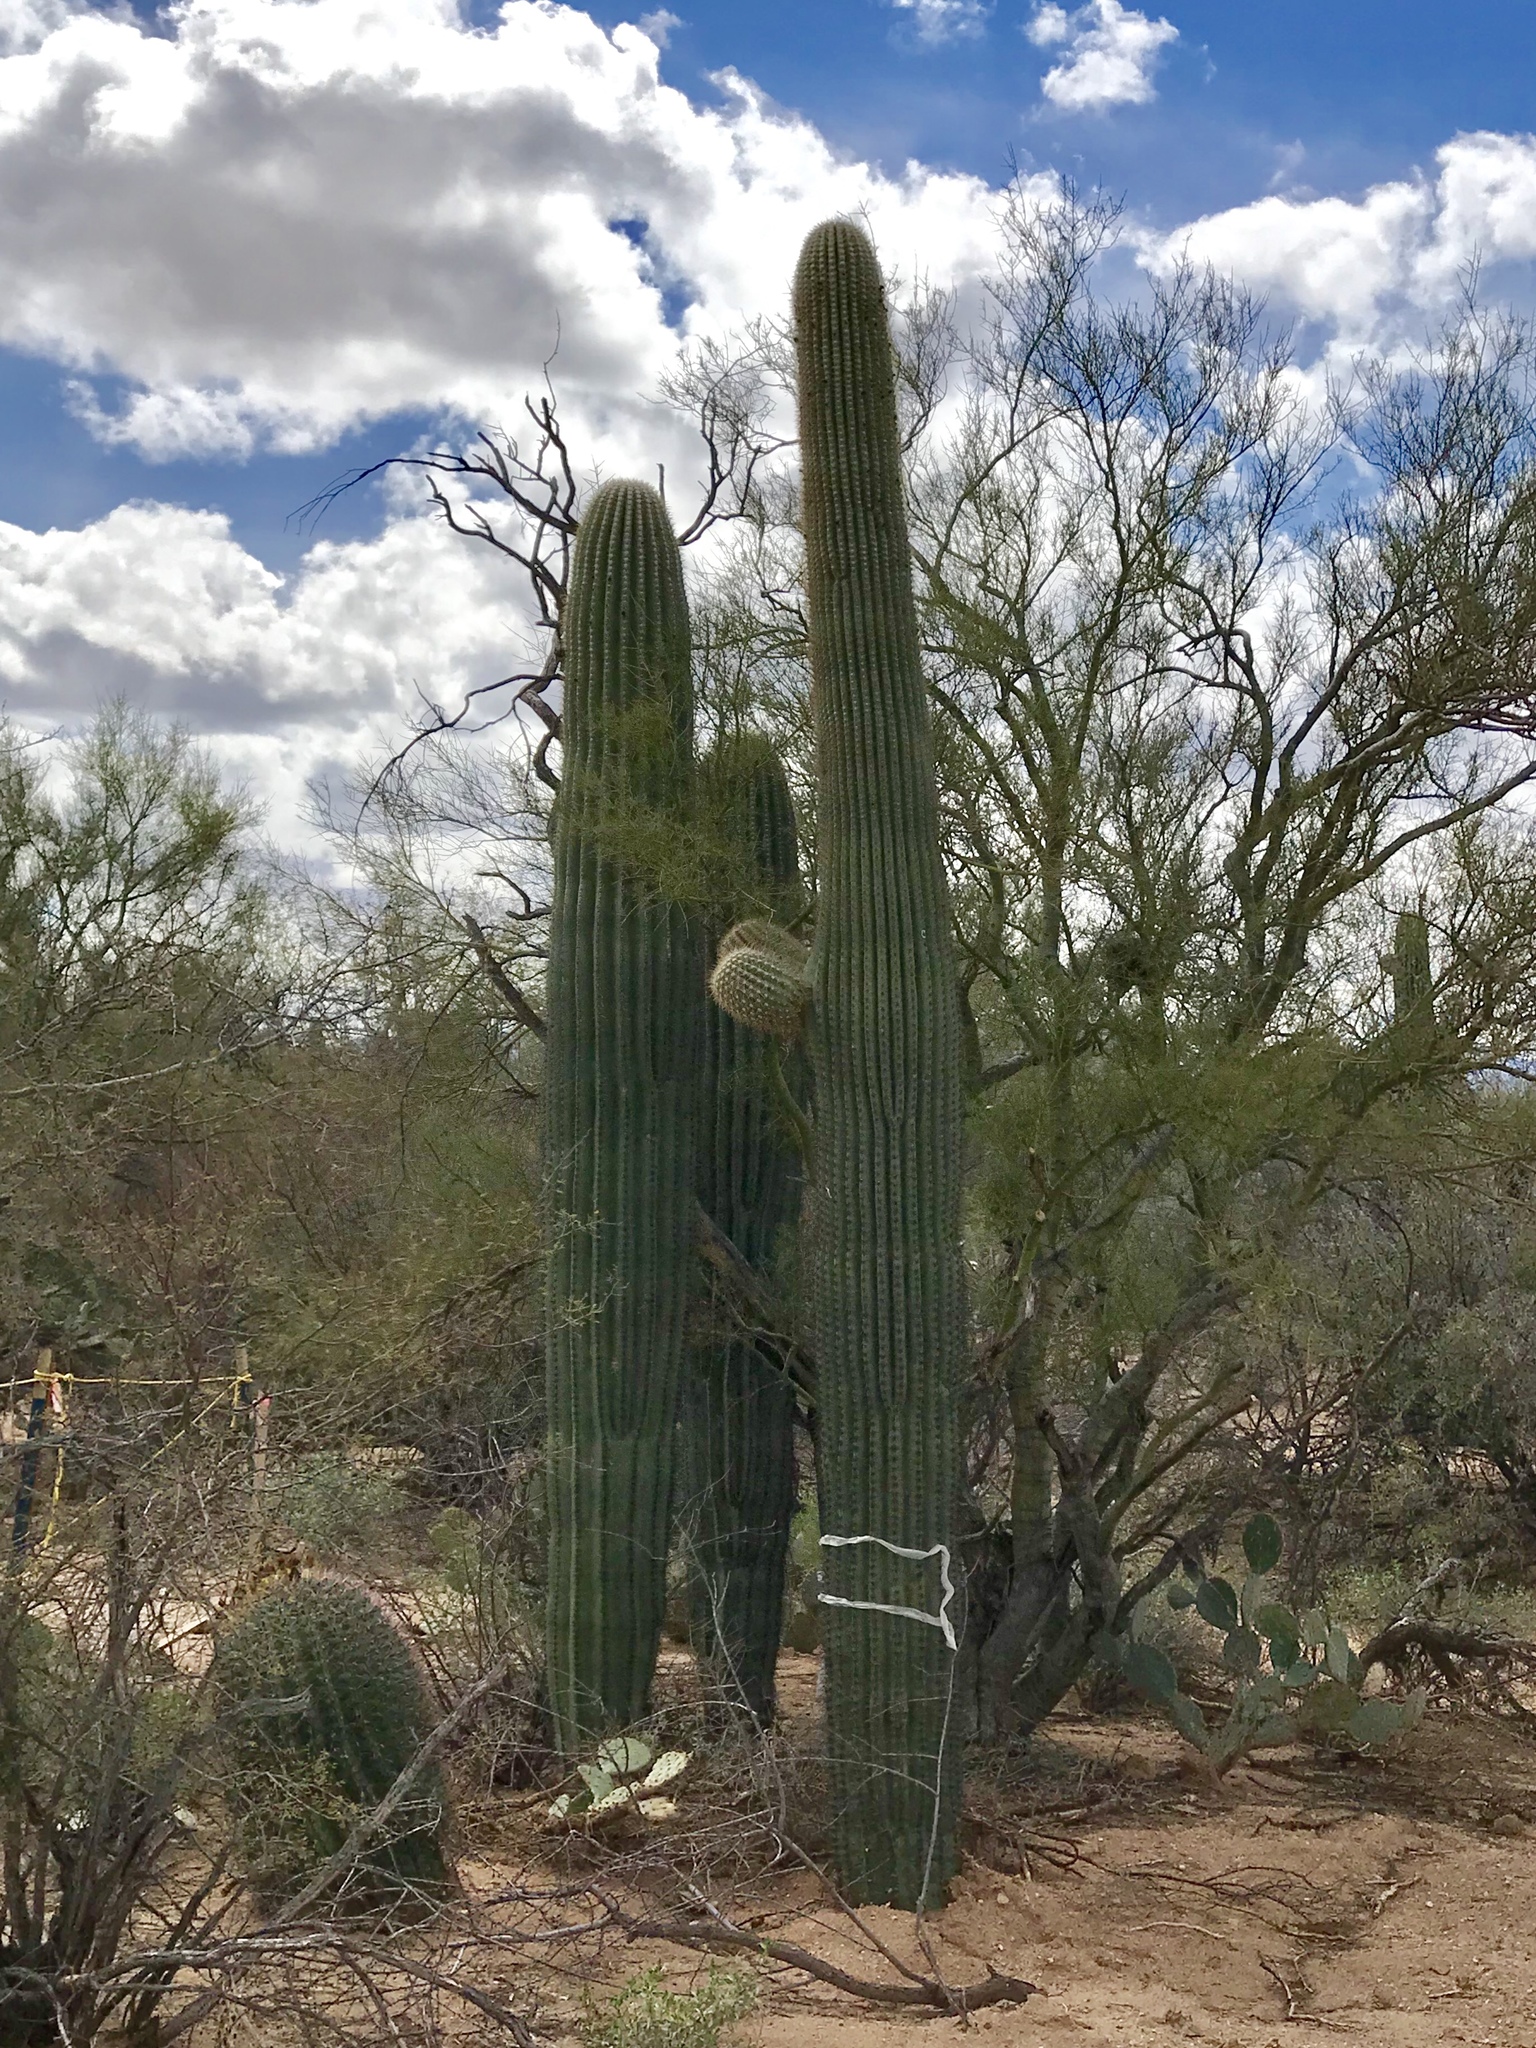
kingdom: Plantae
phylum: Tracheophyta
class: Magnoliopsida
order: Caryophyllales
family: Cactaceae
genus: Carnegiea
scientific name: Carnegiea gigantea
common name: Saguaro
